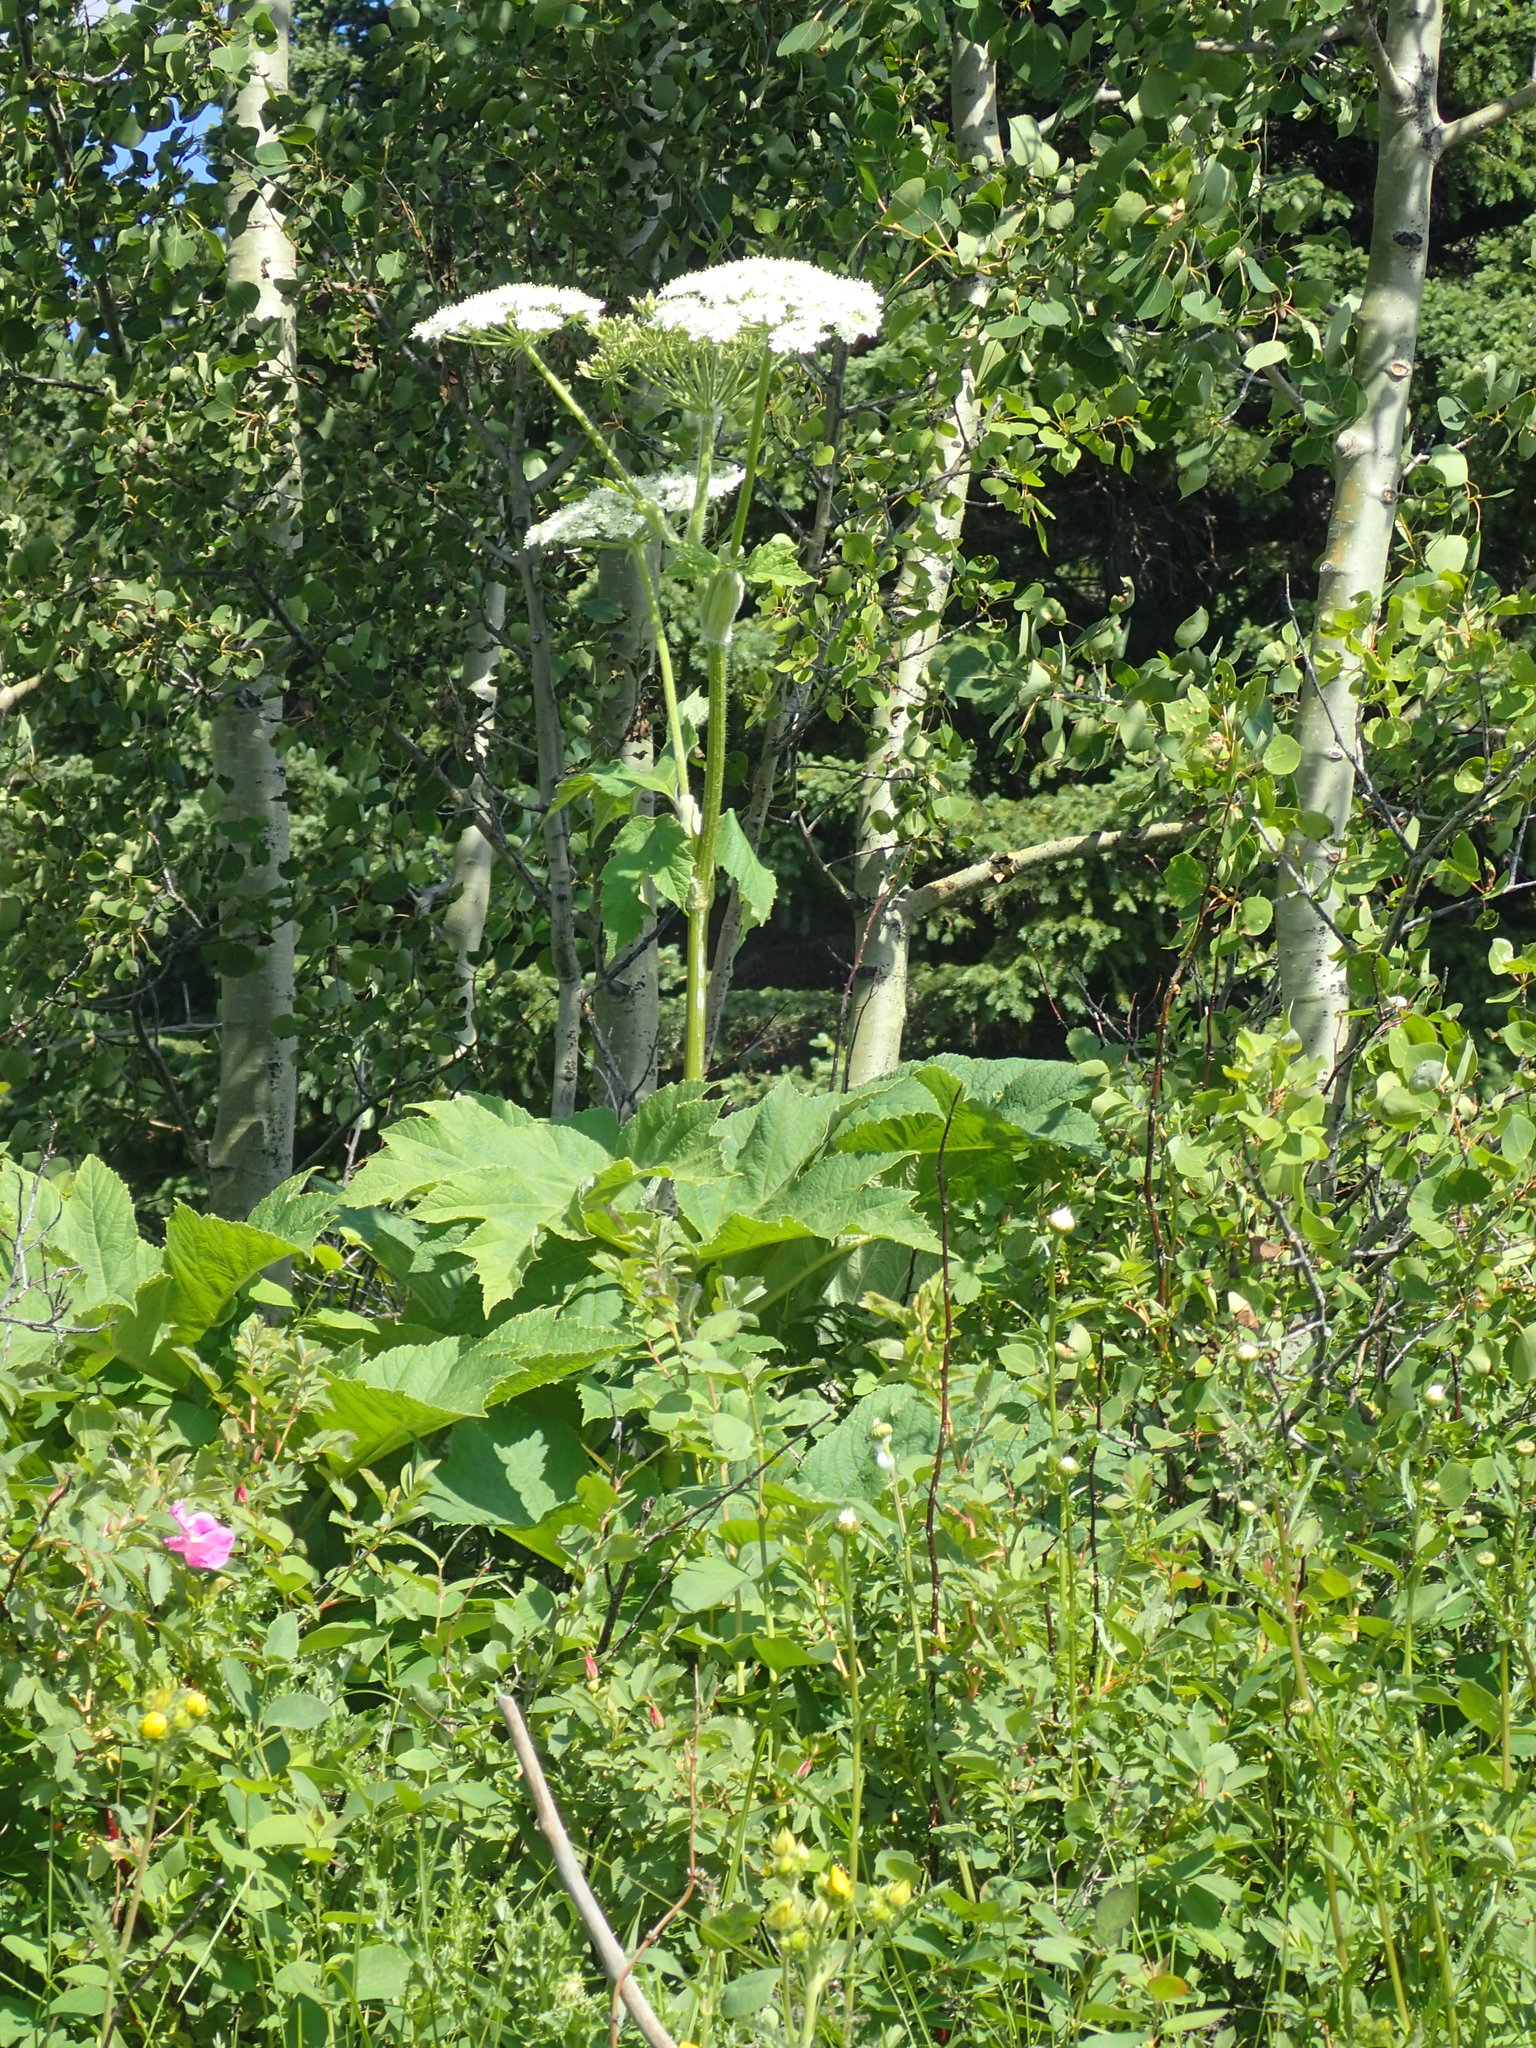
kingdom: Plantae
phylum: Tracheophyta
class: Magnoliopsida
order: Apiales
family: Apiaceae
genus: Heracleum
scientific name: Heracleum maximum
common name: American cow parsnip
